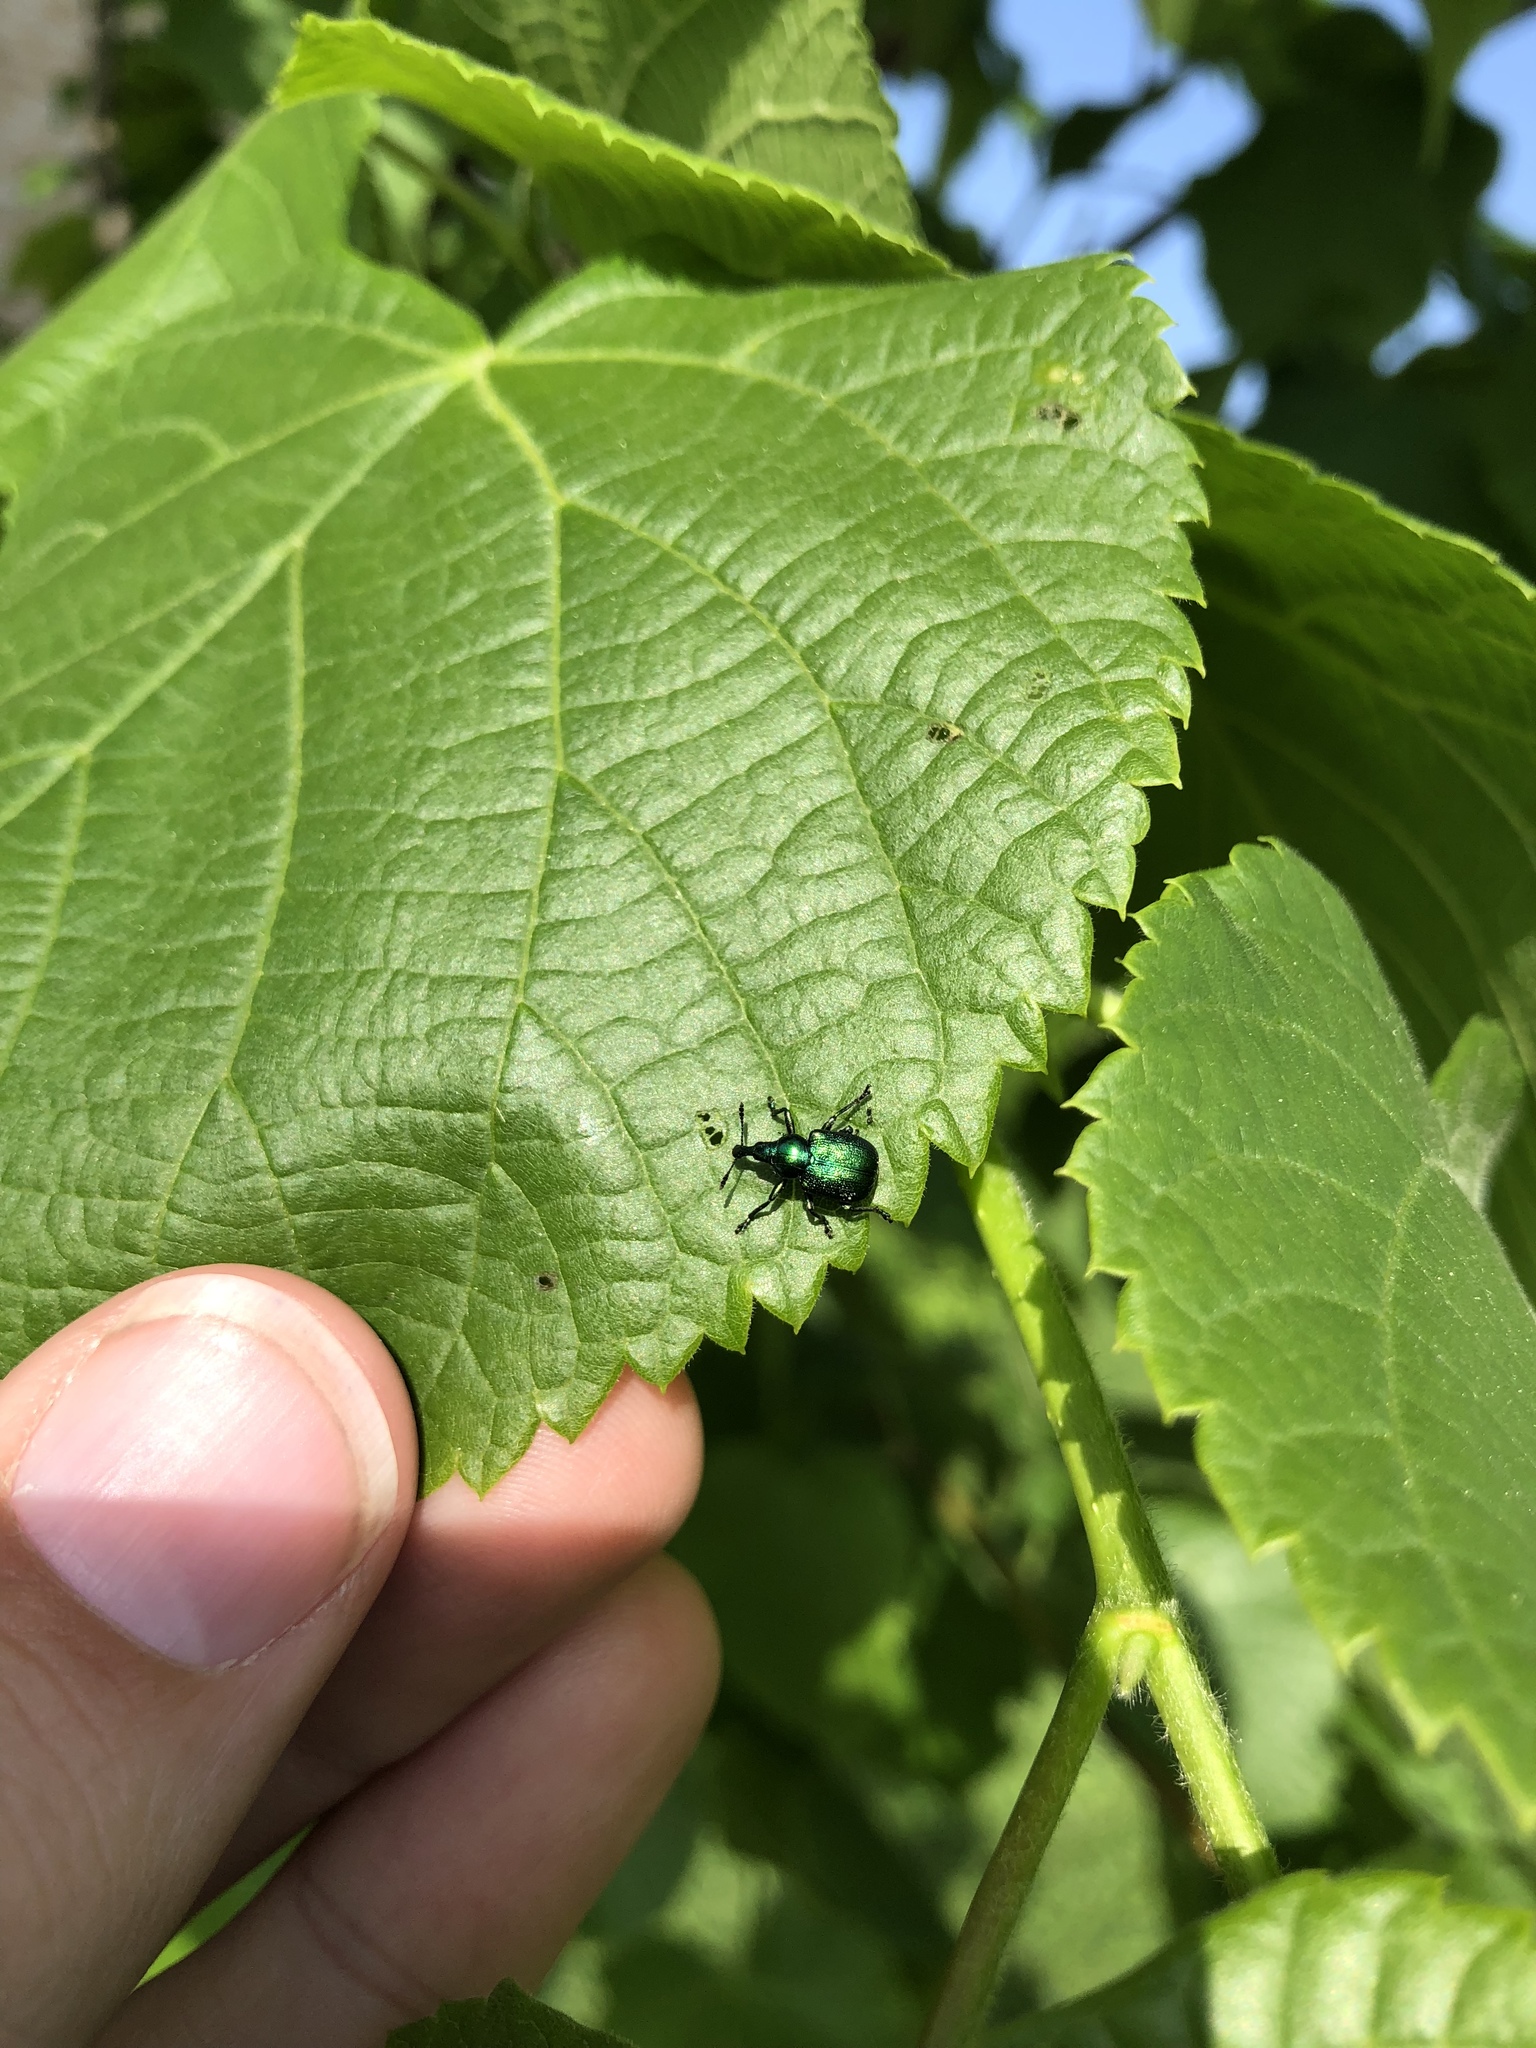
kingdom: Animalia
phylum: Arthropoda
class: Insecta
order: Coleoptera
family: Attelabidae
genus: Byctiscus
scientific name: Byctiscus betulae
